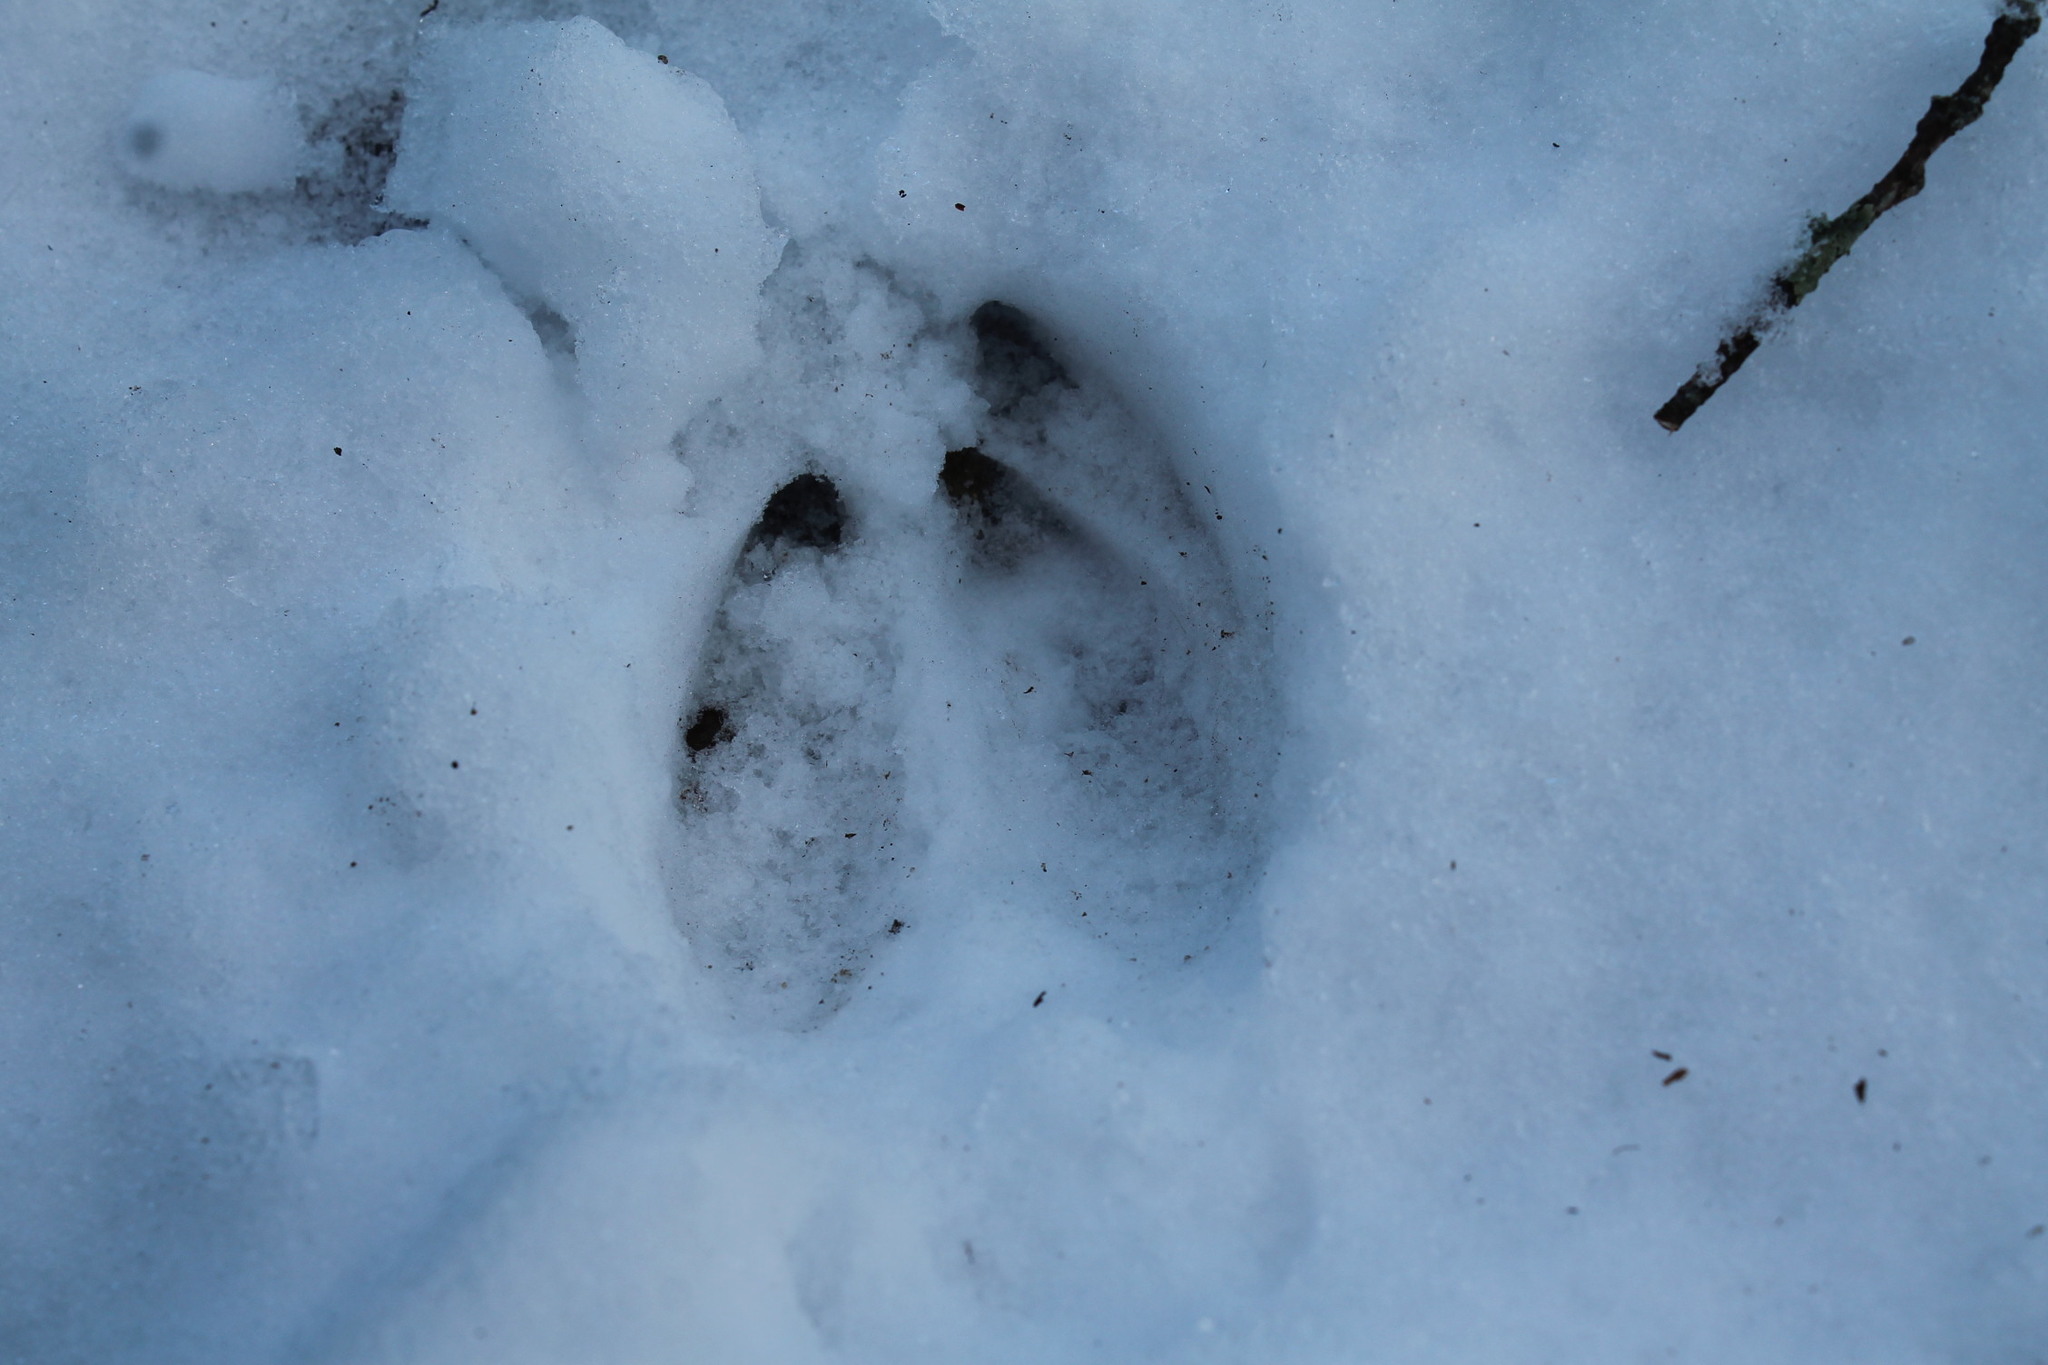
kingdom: Animalia
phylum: Chordata
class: Mammalia
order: Artiodactyla
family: Cervidae
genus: Odocoileus
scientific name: Odocoileus virginianus
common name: White-tailed deer
